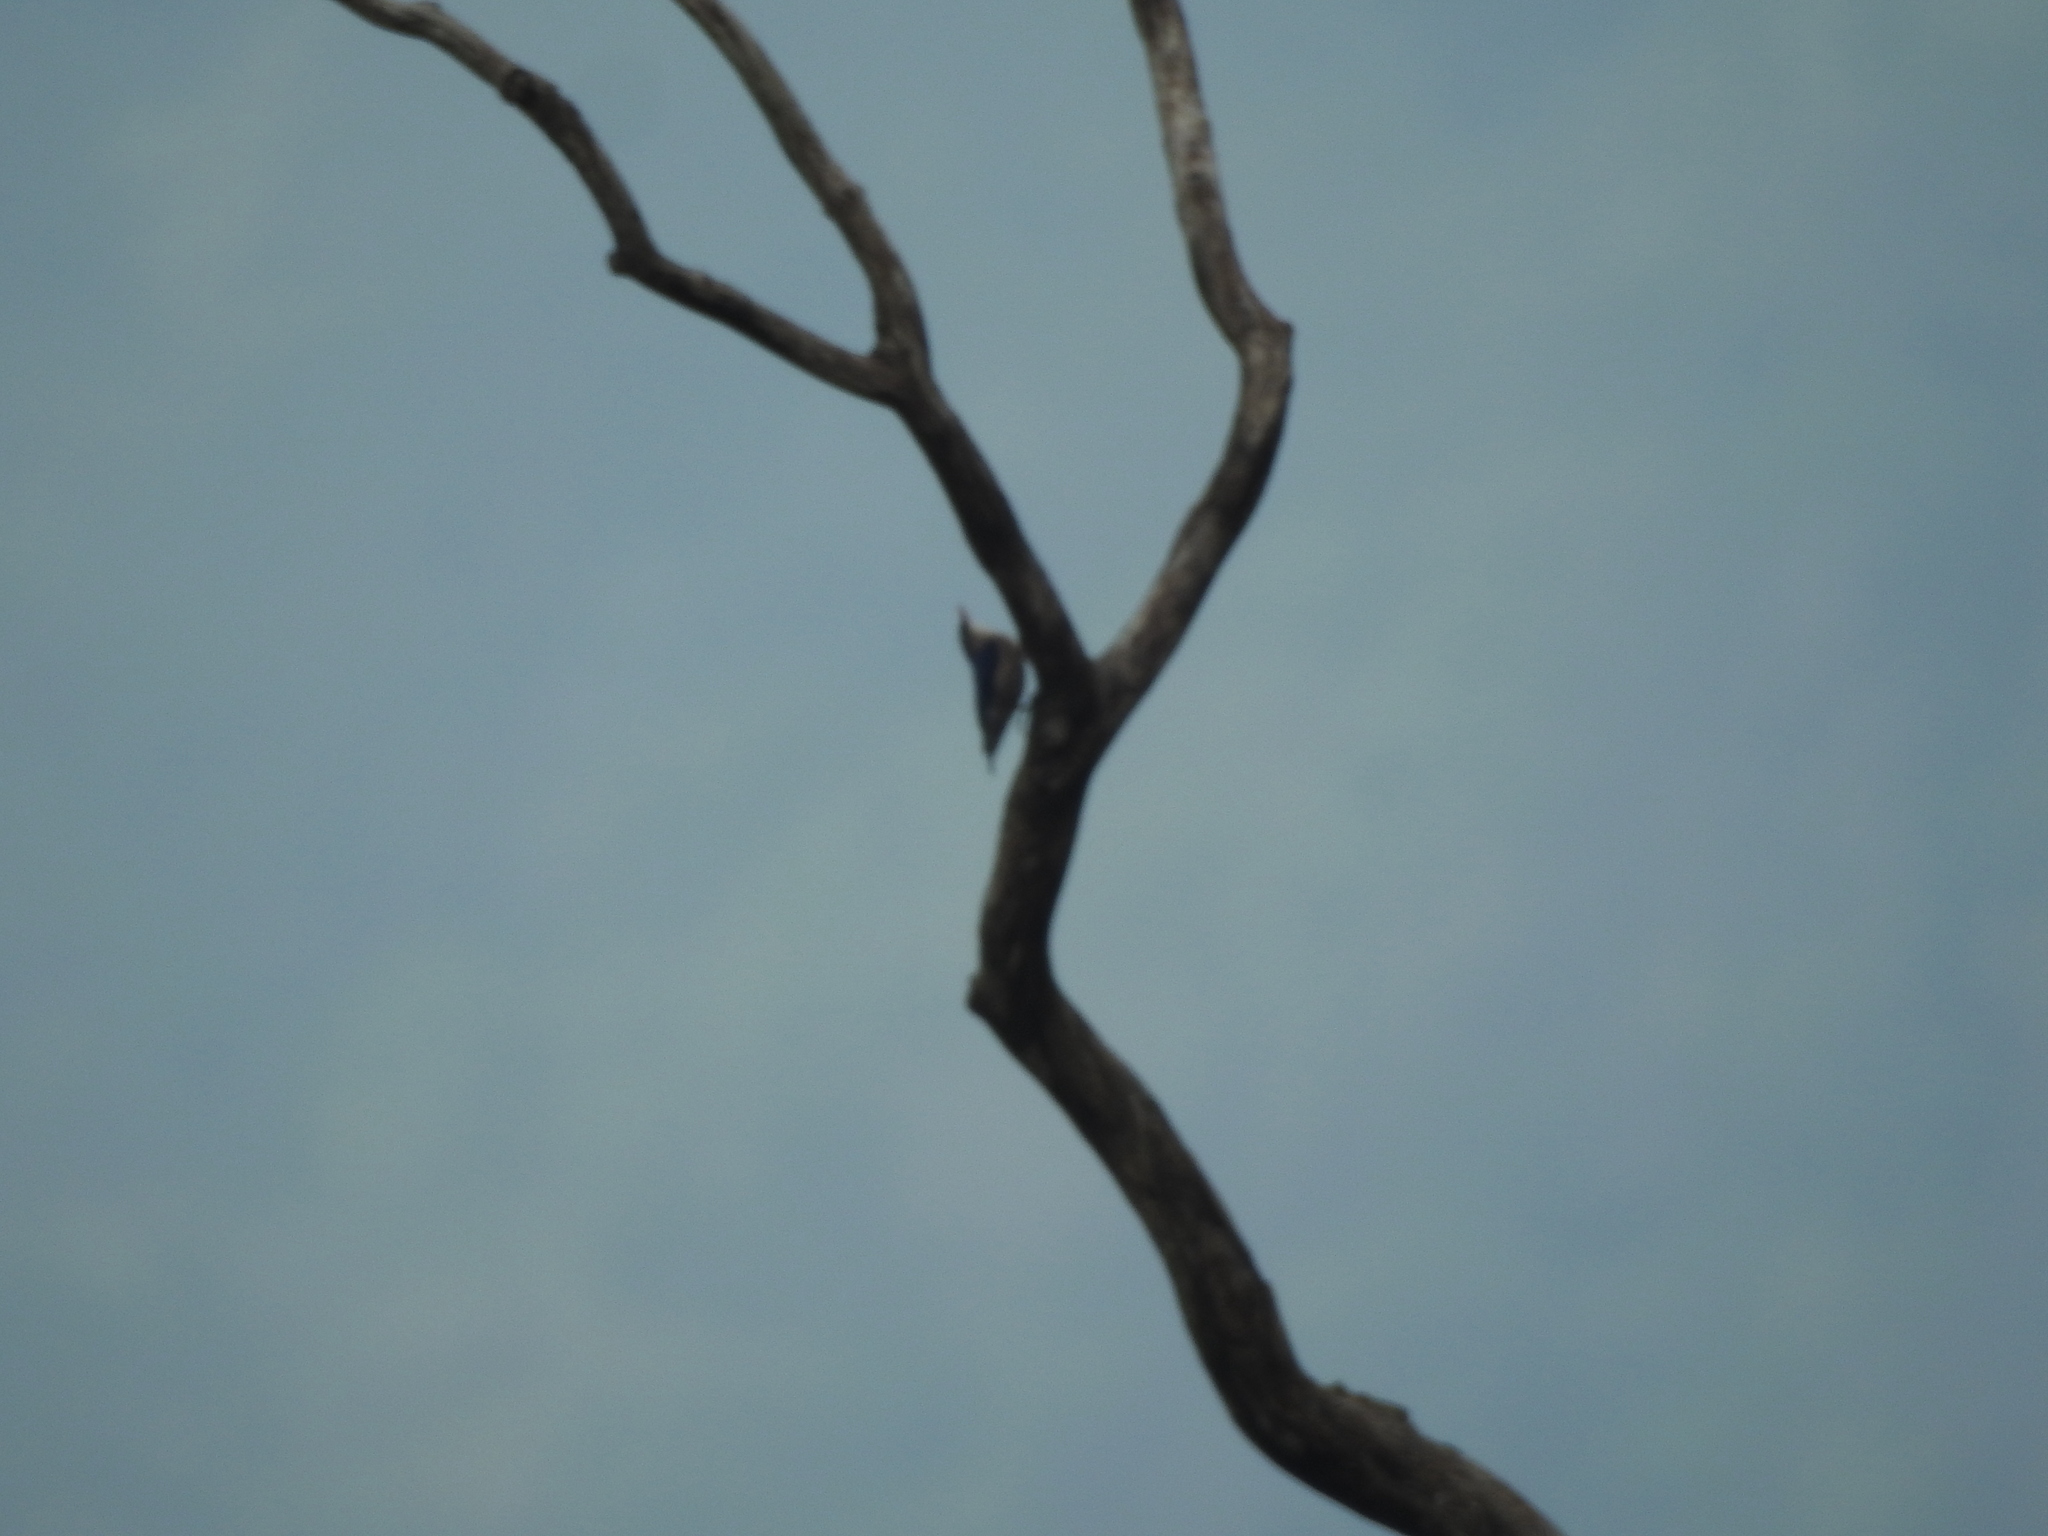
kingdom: Animalia
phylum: Chordata
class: Aves
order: Passeriformes
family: Sittidae
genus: Sitta
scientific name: Sitta frontalis
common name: Velvet-fronted nuthatch
